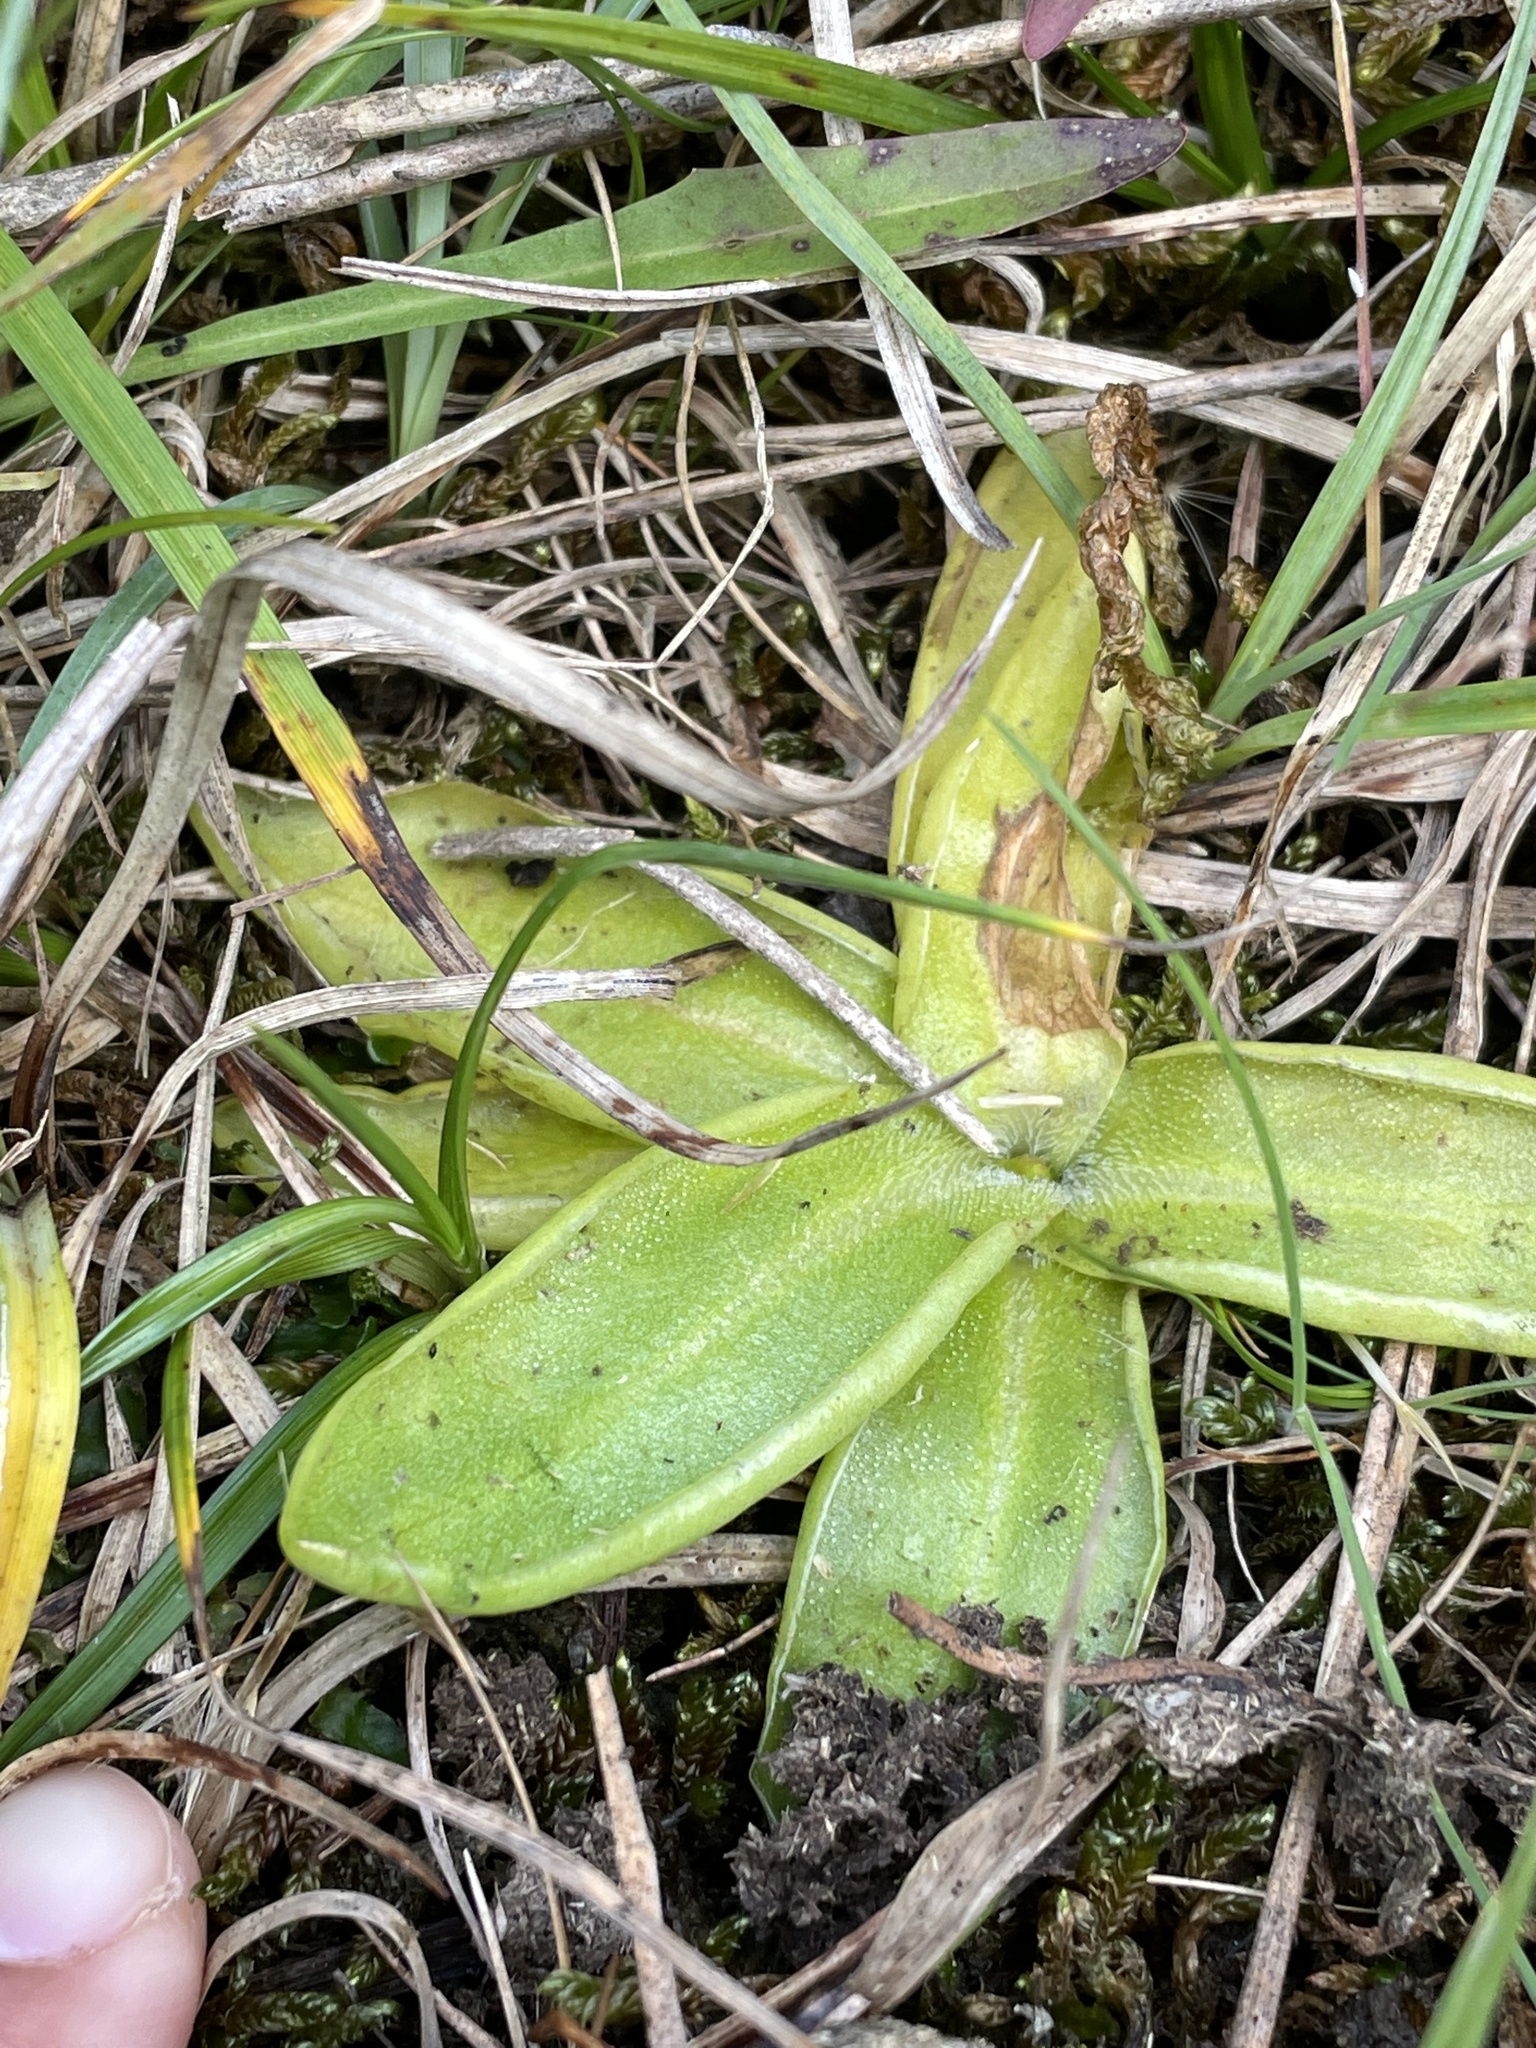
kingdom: Plantae
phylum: Tracheophyta
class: Magnoliopsida
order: Lamiales
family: Lentibulariaceae
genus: Pinguicula
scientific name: Pinguicula vulgaris
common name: Common butterwort
